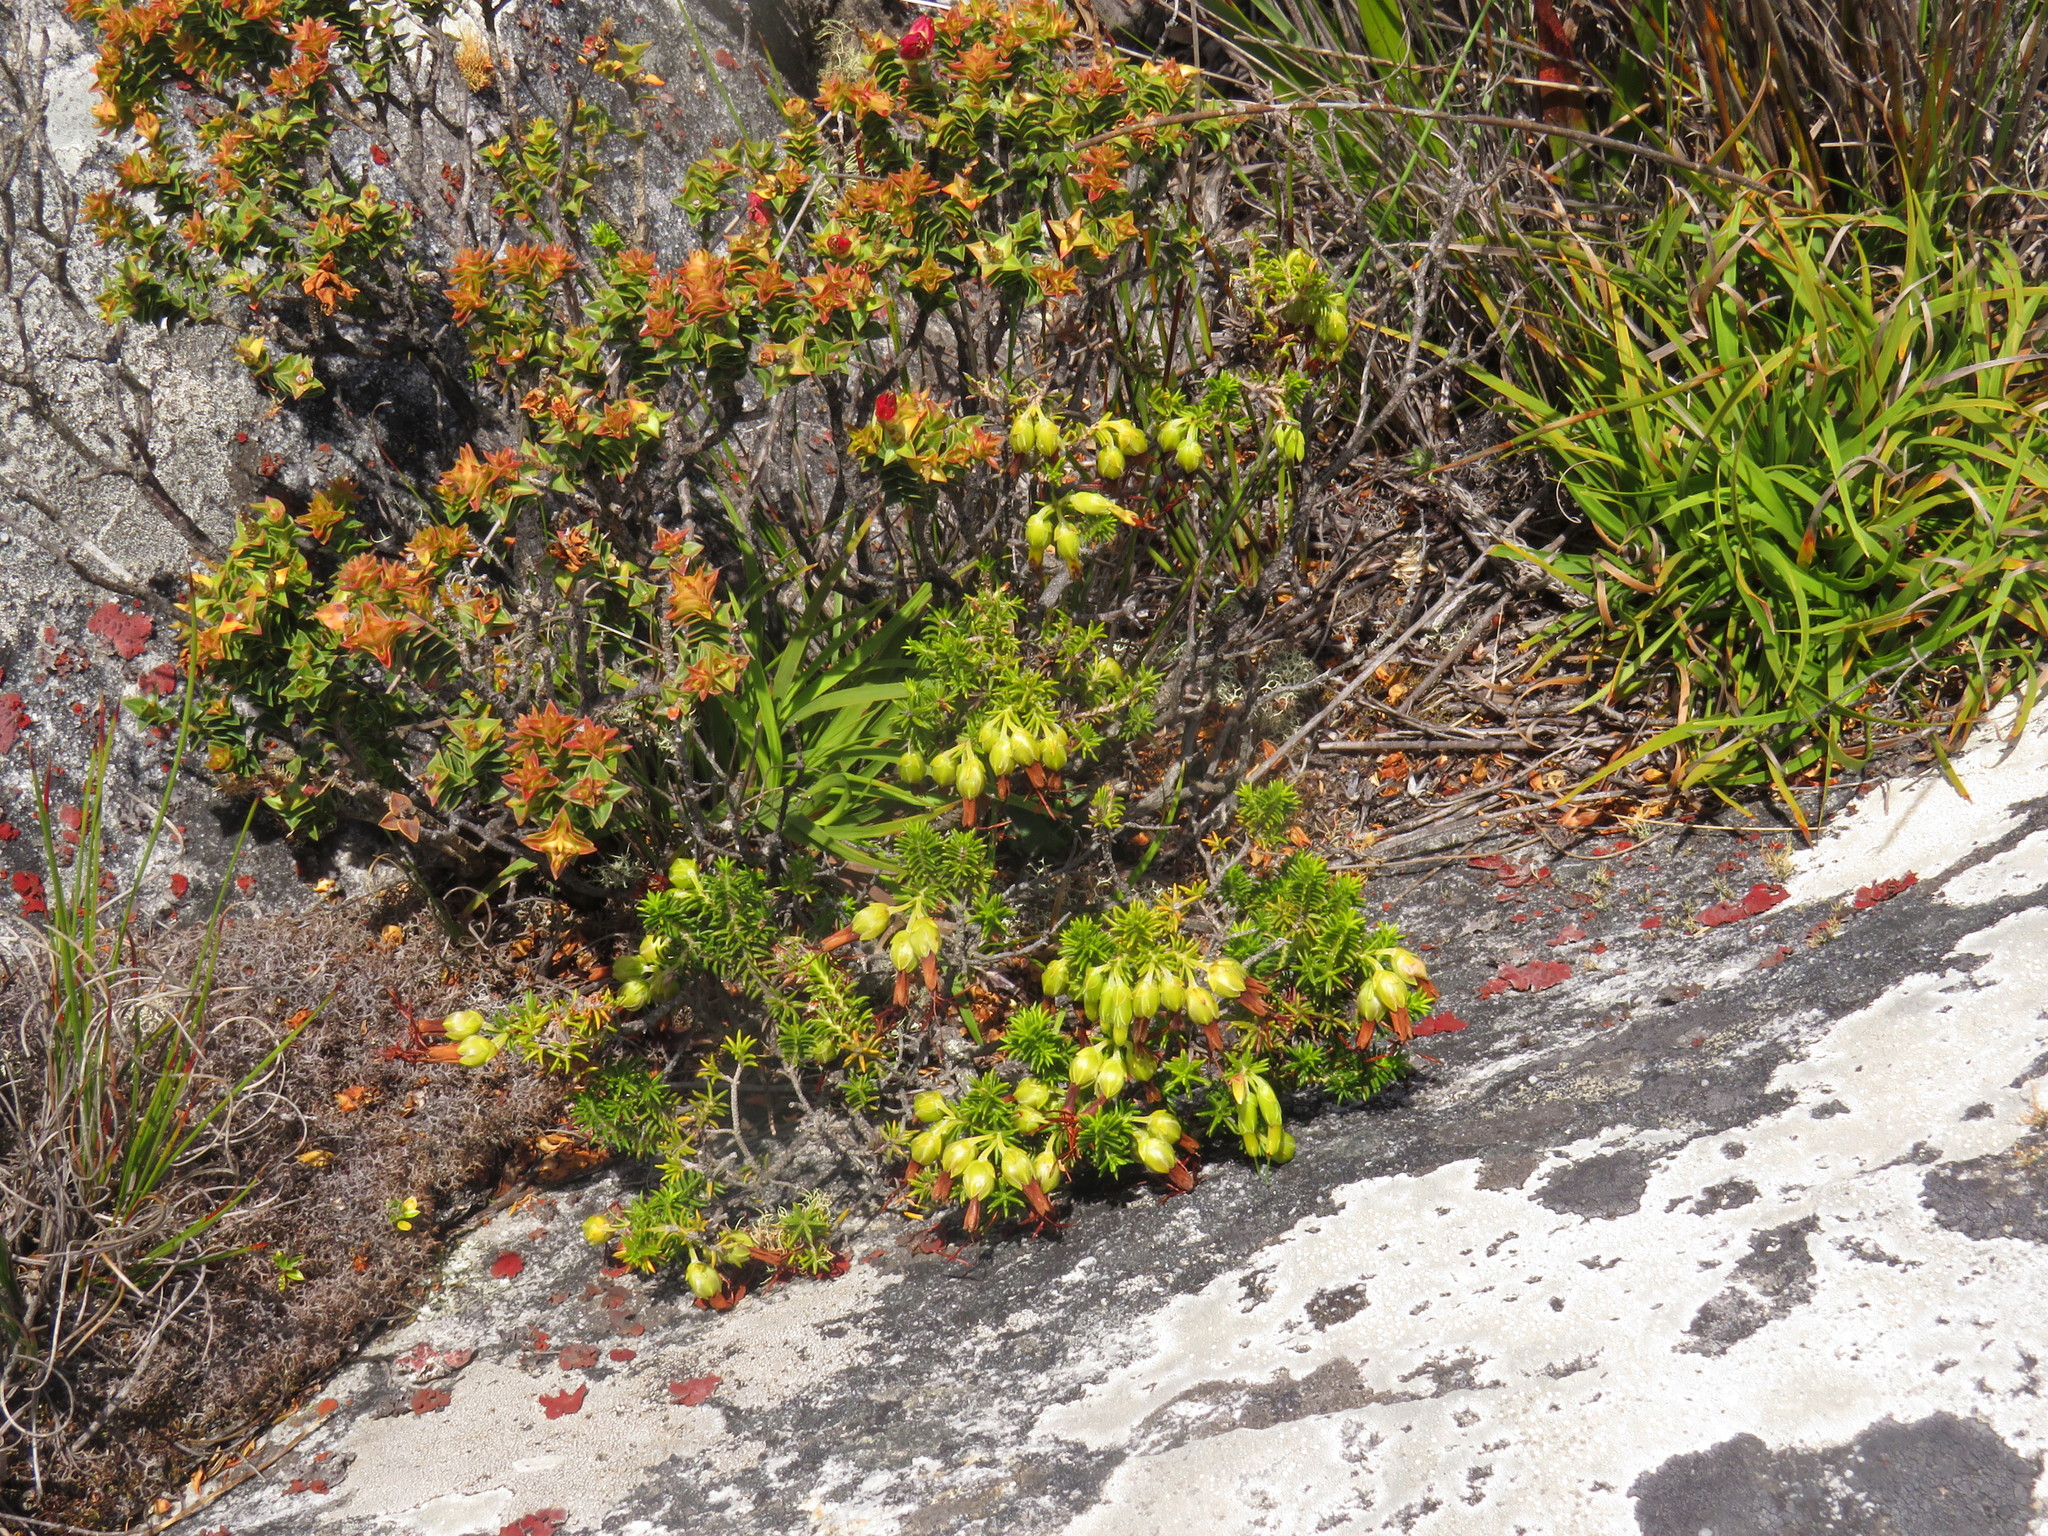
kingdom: Plantae
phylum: Tracheophyta
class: Magnoliopsida
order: Ericales
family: Ericaceae
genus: Erica
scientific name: Erica coccinea
